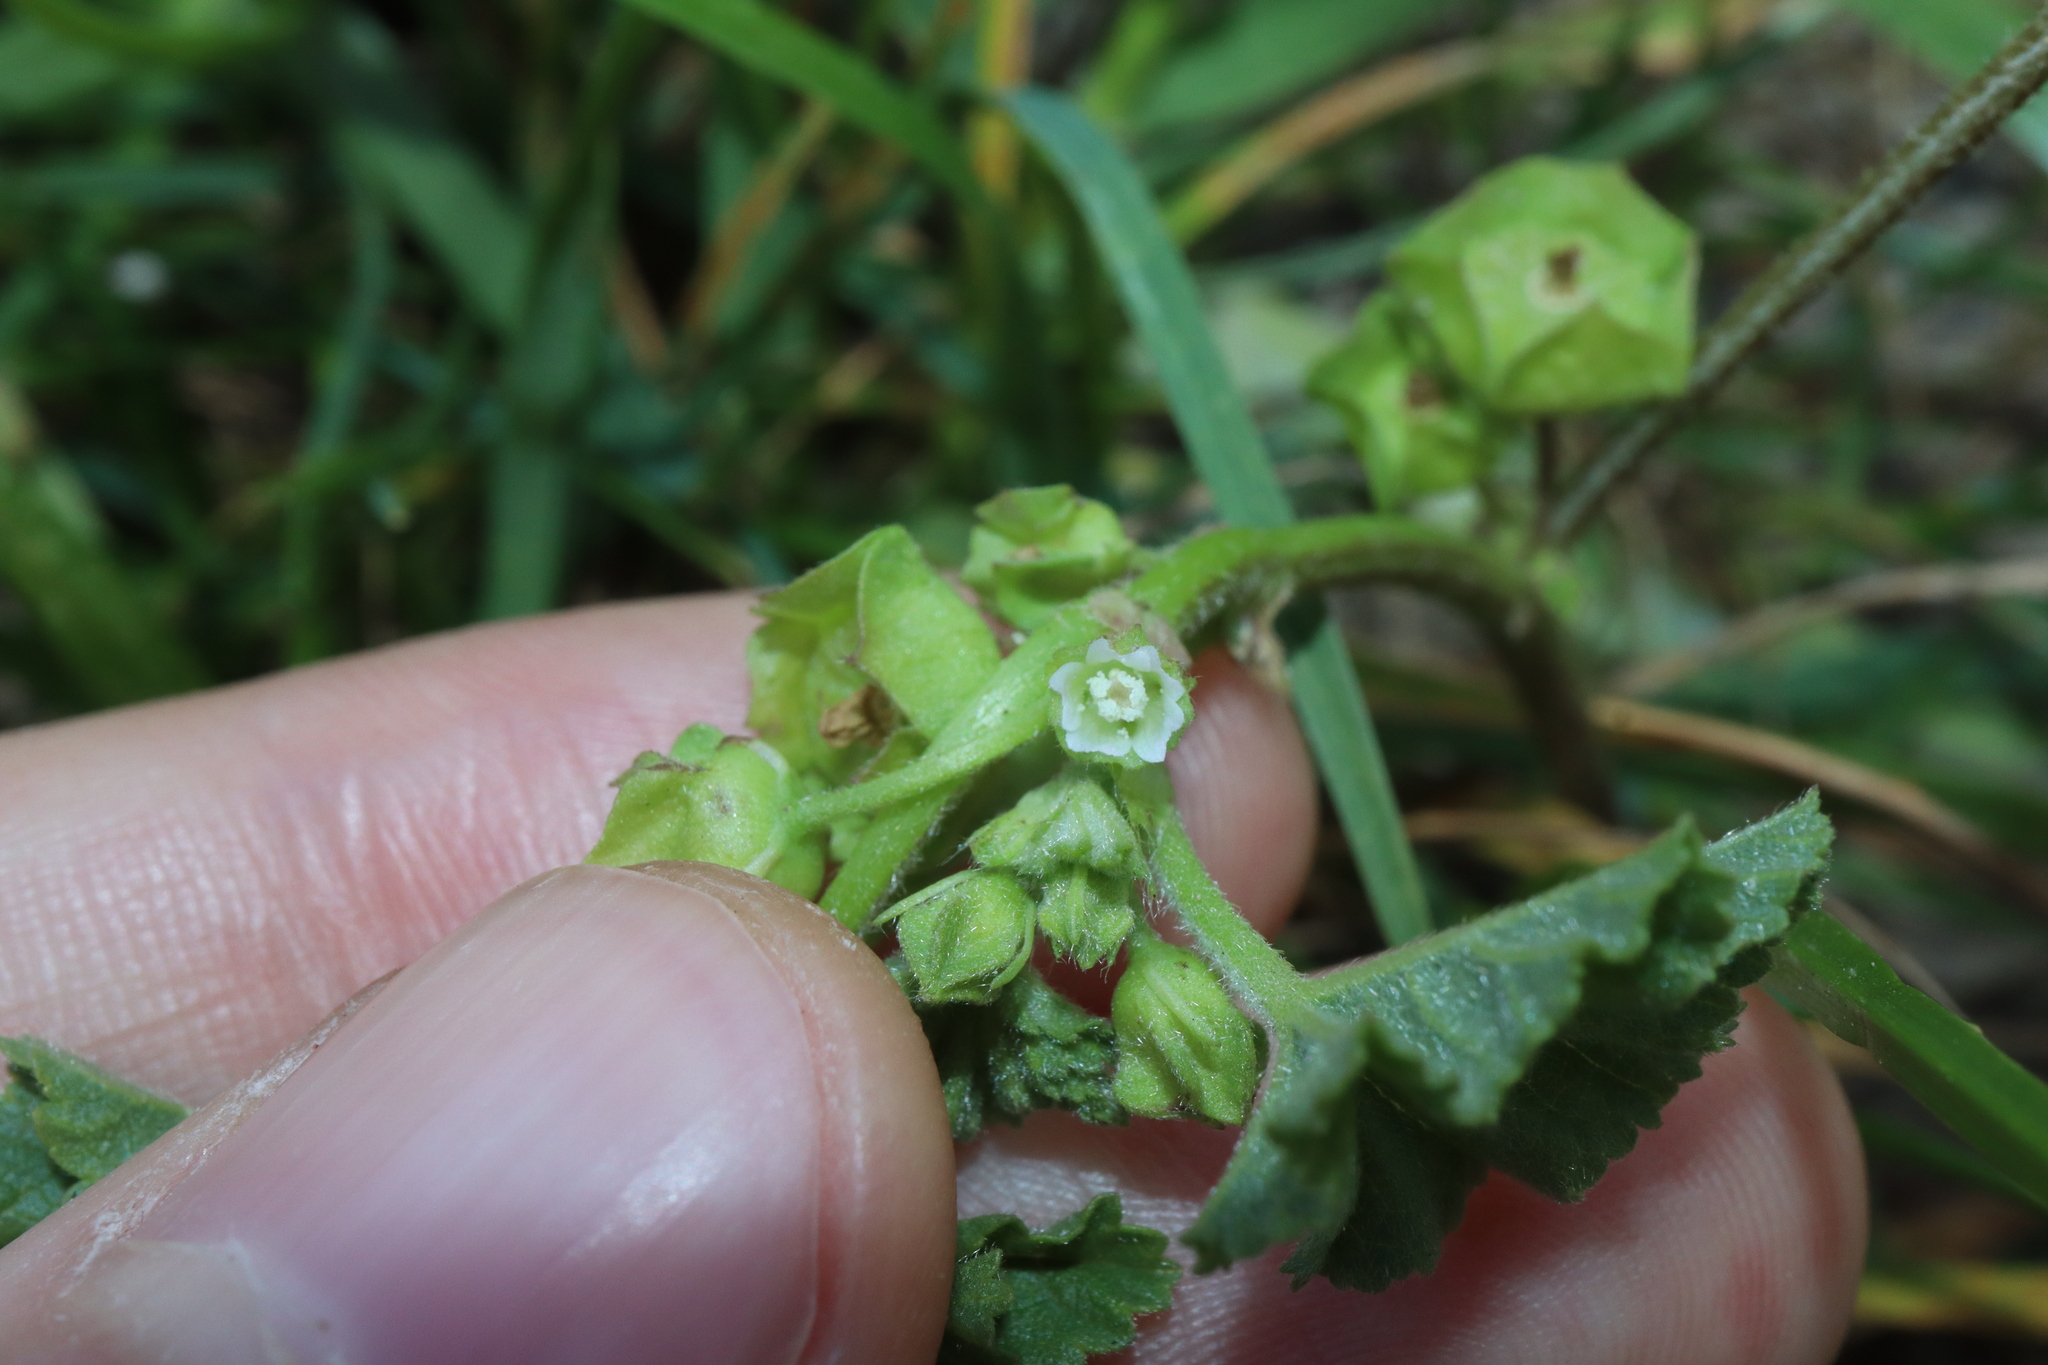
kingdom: Plantae
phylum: Tracheophyta
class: Magnoliopsida
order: Malvales
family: Malvaceae
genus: Malva
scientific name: Malva parviflora
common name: Least mallow
